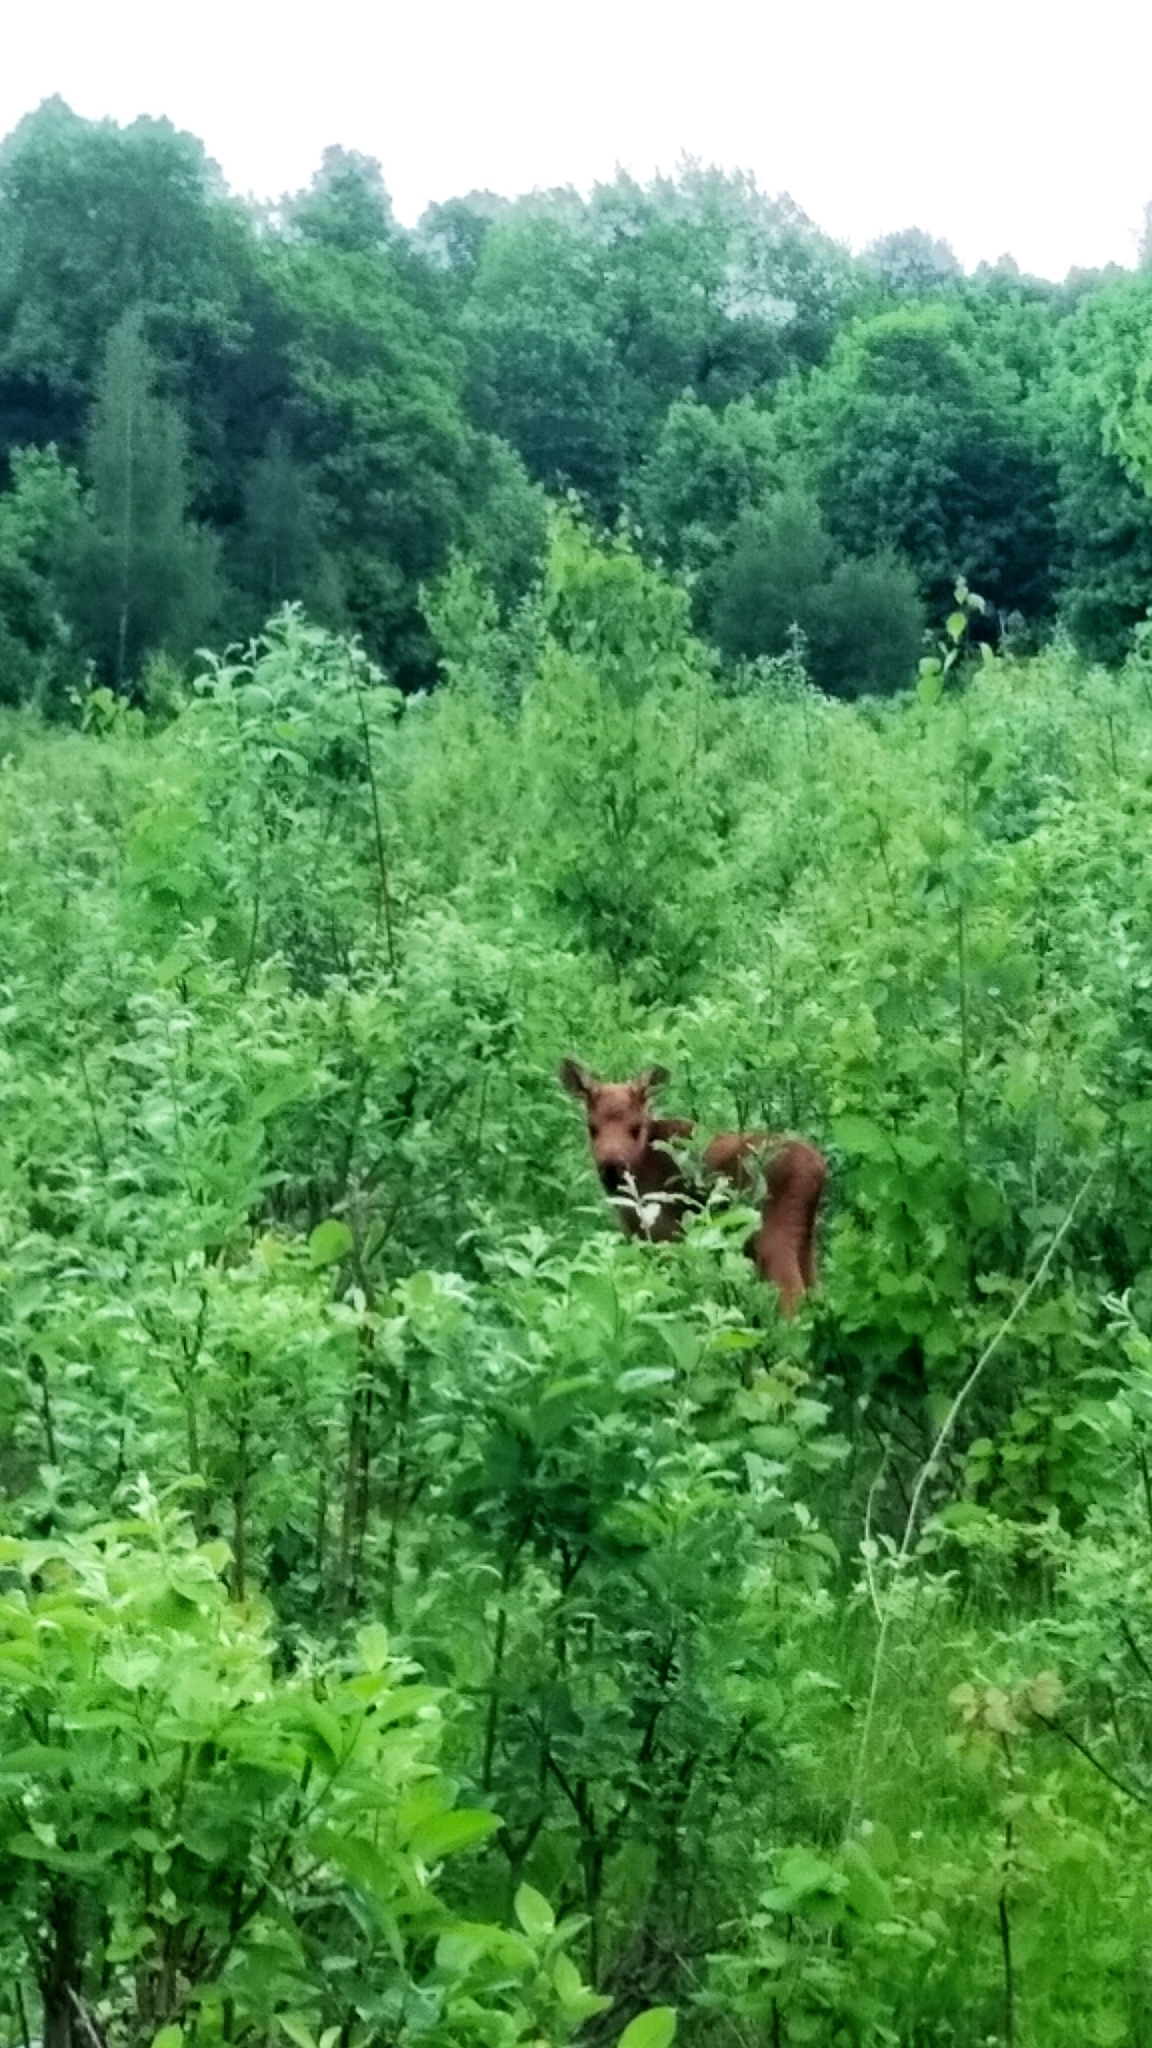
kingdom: Animalia
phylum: Chordata
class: Mammalia
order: Artiodactyla
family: Cervidae
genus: Alces
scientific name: Alces alces
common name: Moose
